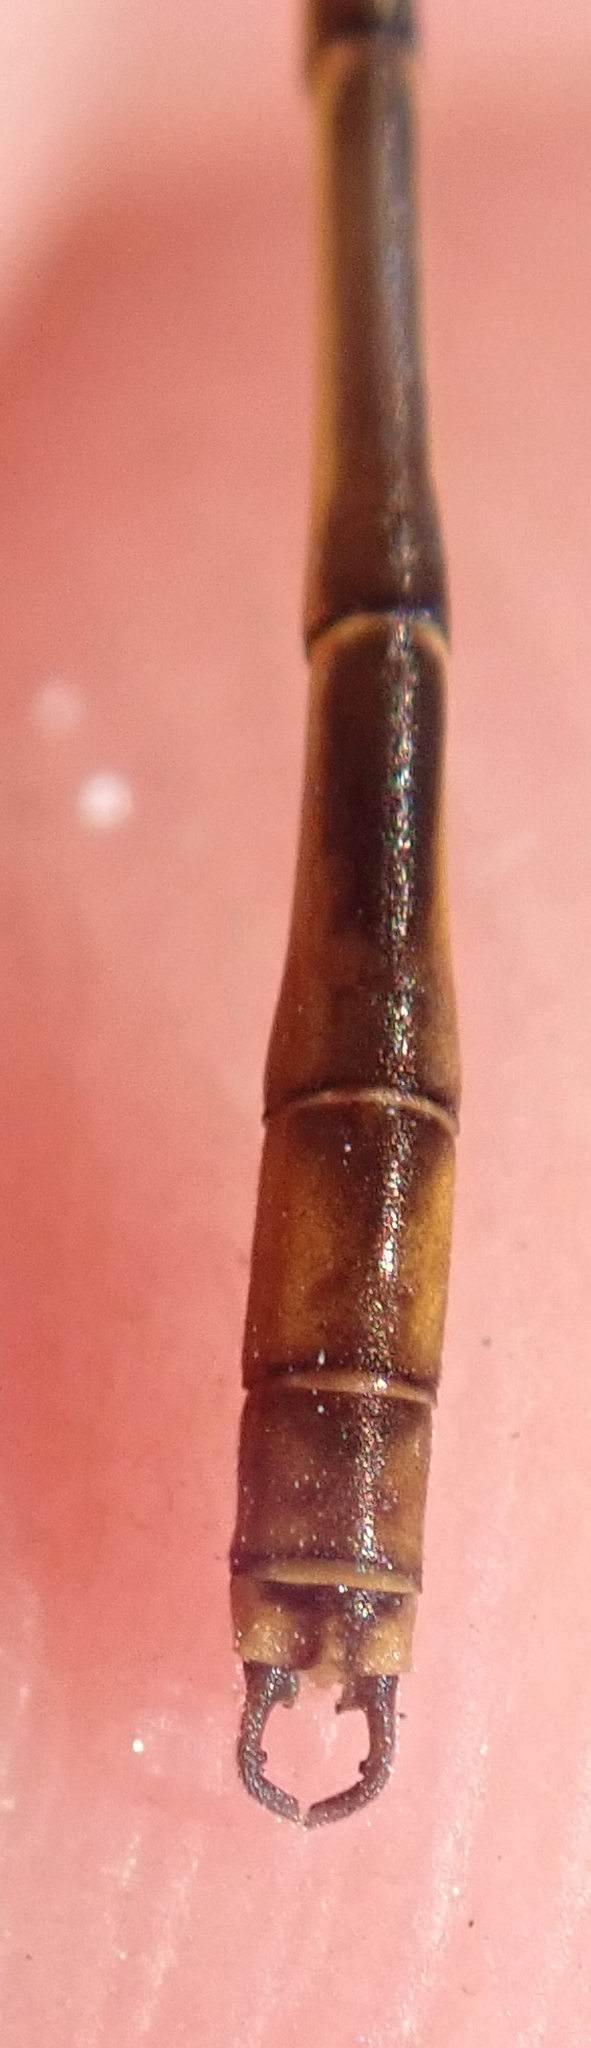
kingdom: Animalia
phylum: Arthropoda
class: Insecta
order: Odonata
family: Coenagrionidae
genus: Agriocnemis
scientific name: Agriocnemis victoria
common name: Lesser pincer-tailed wisp
